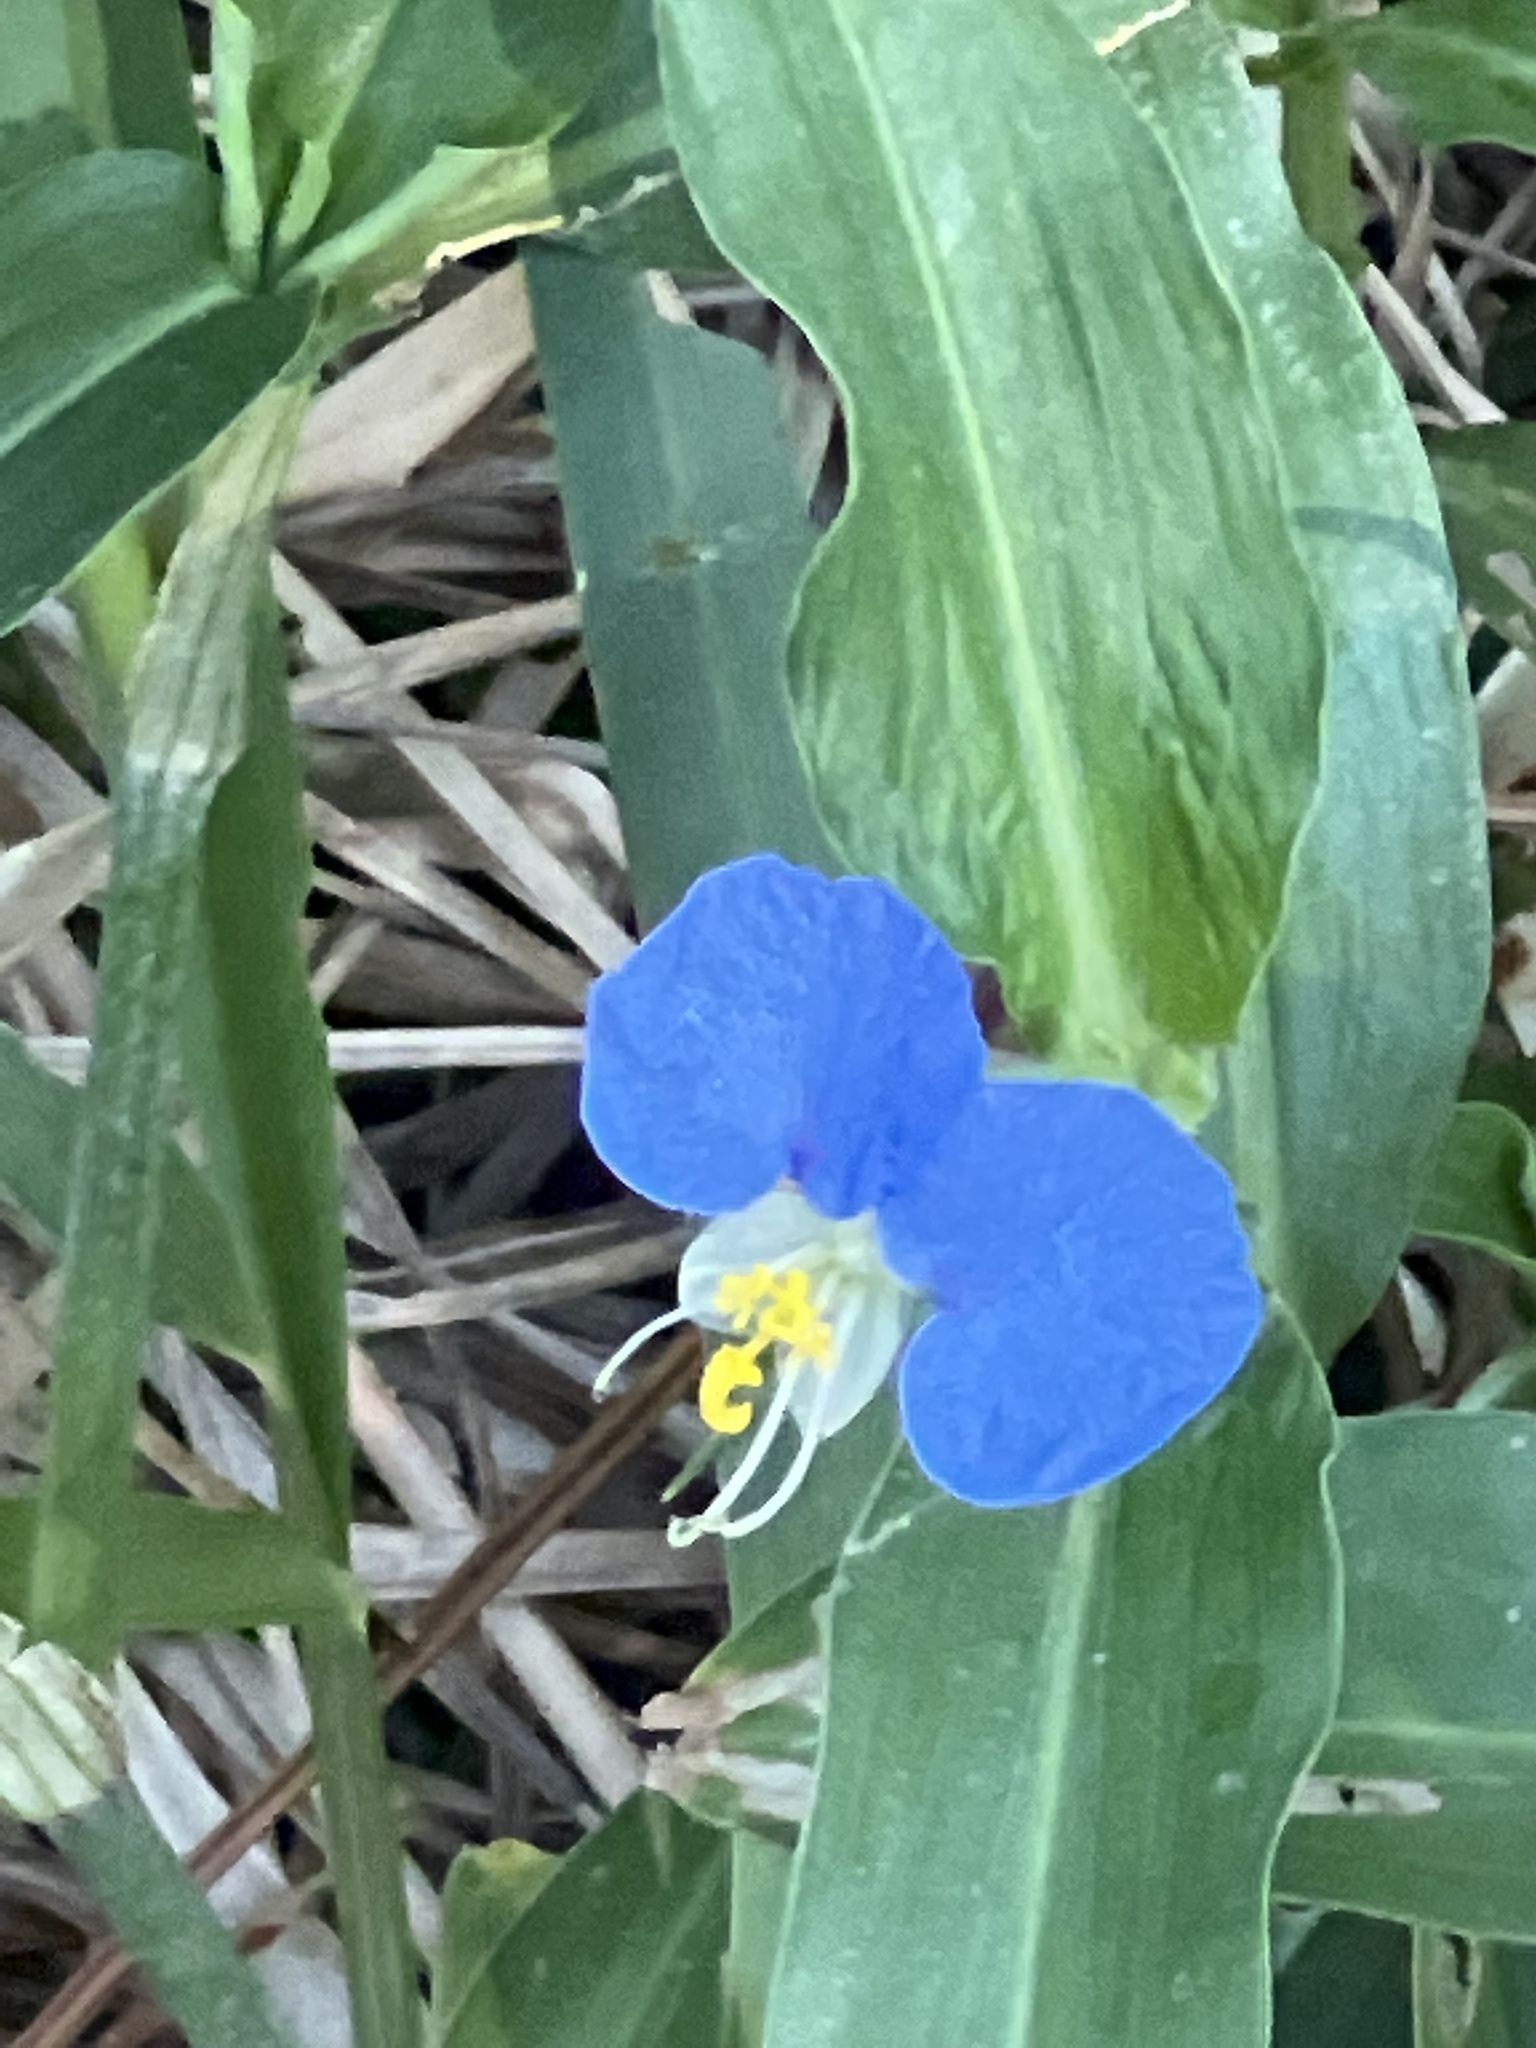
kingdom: Plantae
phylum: Tracheophyta
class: Liliopsida
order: Commelinales
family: Commelinaceae
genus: Commelina
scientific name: Commelina erecta
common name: Blousel blommetjie
